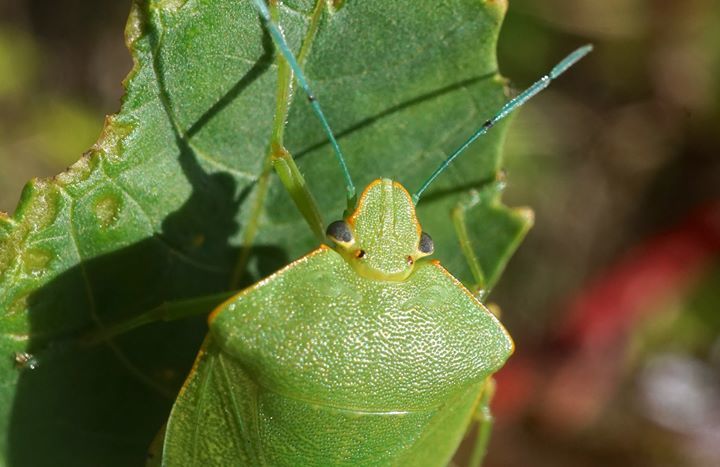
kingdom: Animalia
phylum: Arthropoda
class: Insecta
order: Hemiptera
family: Pentatomidae
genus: Acrosternum
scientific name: Acrosternum marginatum
